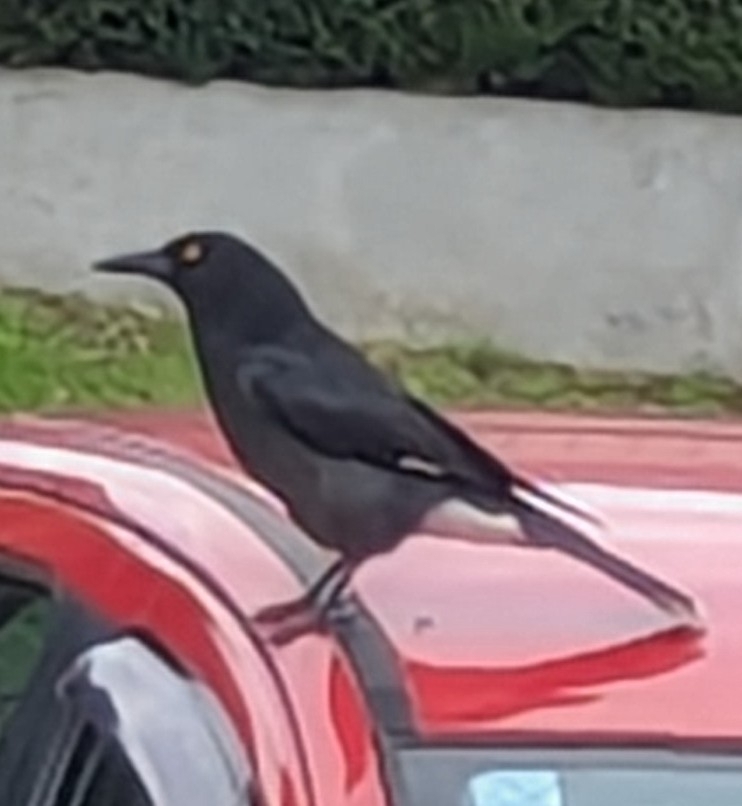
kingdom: Animalia
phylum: Chordata
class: Aves
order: Passeriformes
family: Cracticidae
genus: Strepera
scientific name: Strepera graculina
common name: Pied currawong
